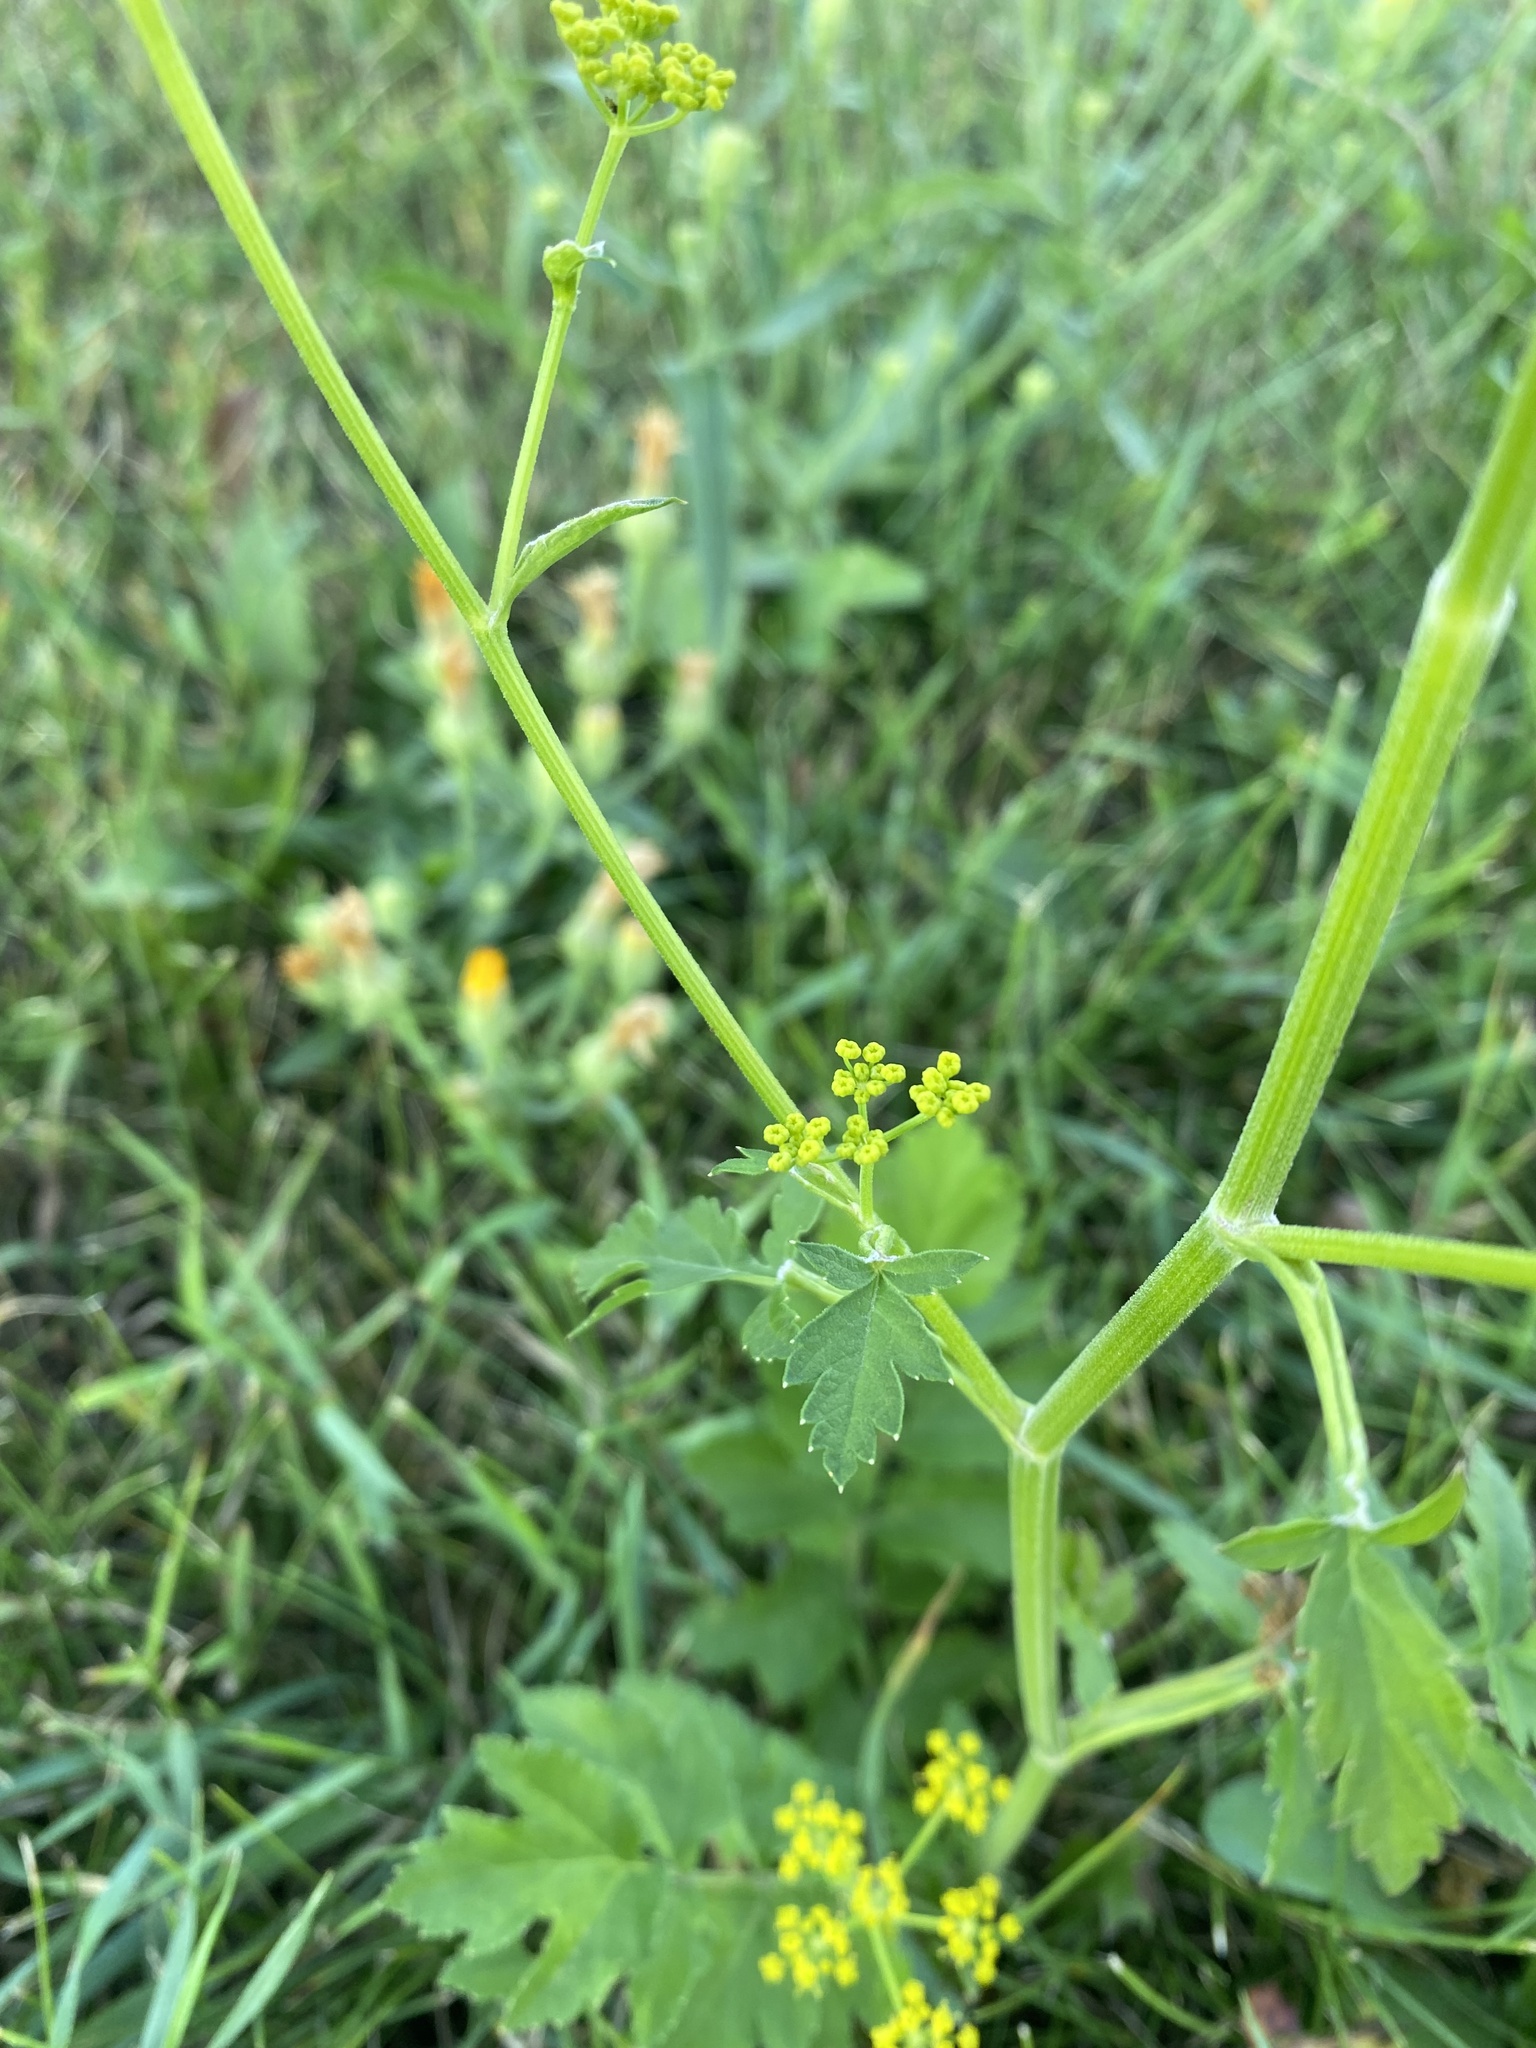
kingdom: Plantae
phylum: Tracheophyta
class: Magnoliopsida
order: Apiales
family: Apiaceae
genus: Pastinaca
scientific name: Pastinaca sativa
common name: Wild parsnip
